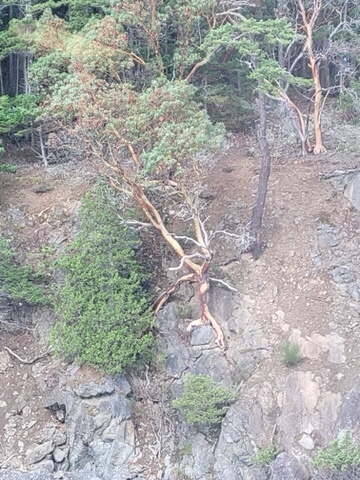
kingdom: Plantae
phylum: Tracheophyta
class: Magnoliopsida
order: Ericales
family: Ericaceae
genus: Arbutus
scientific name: Arbutus menziesii
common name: Pacific madrone
